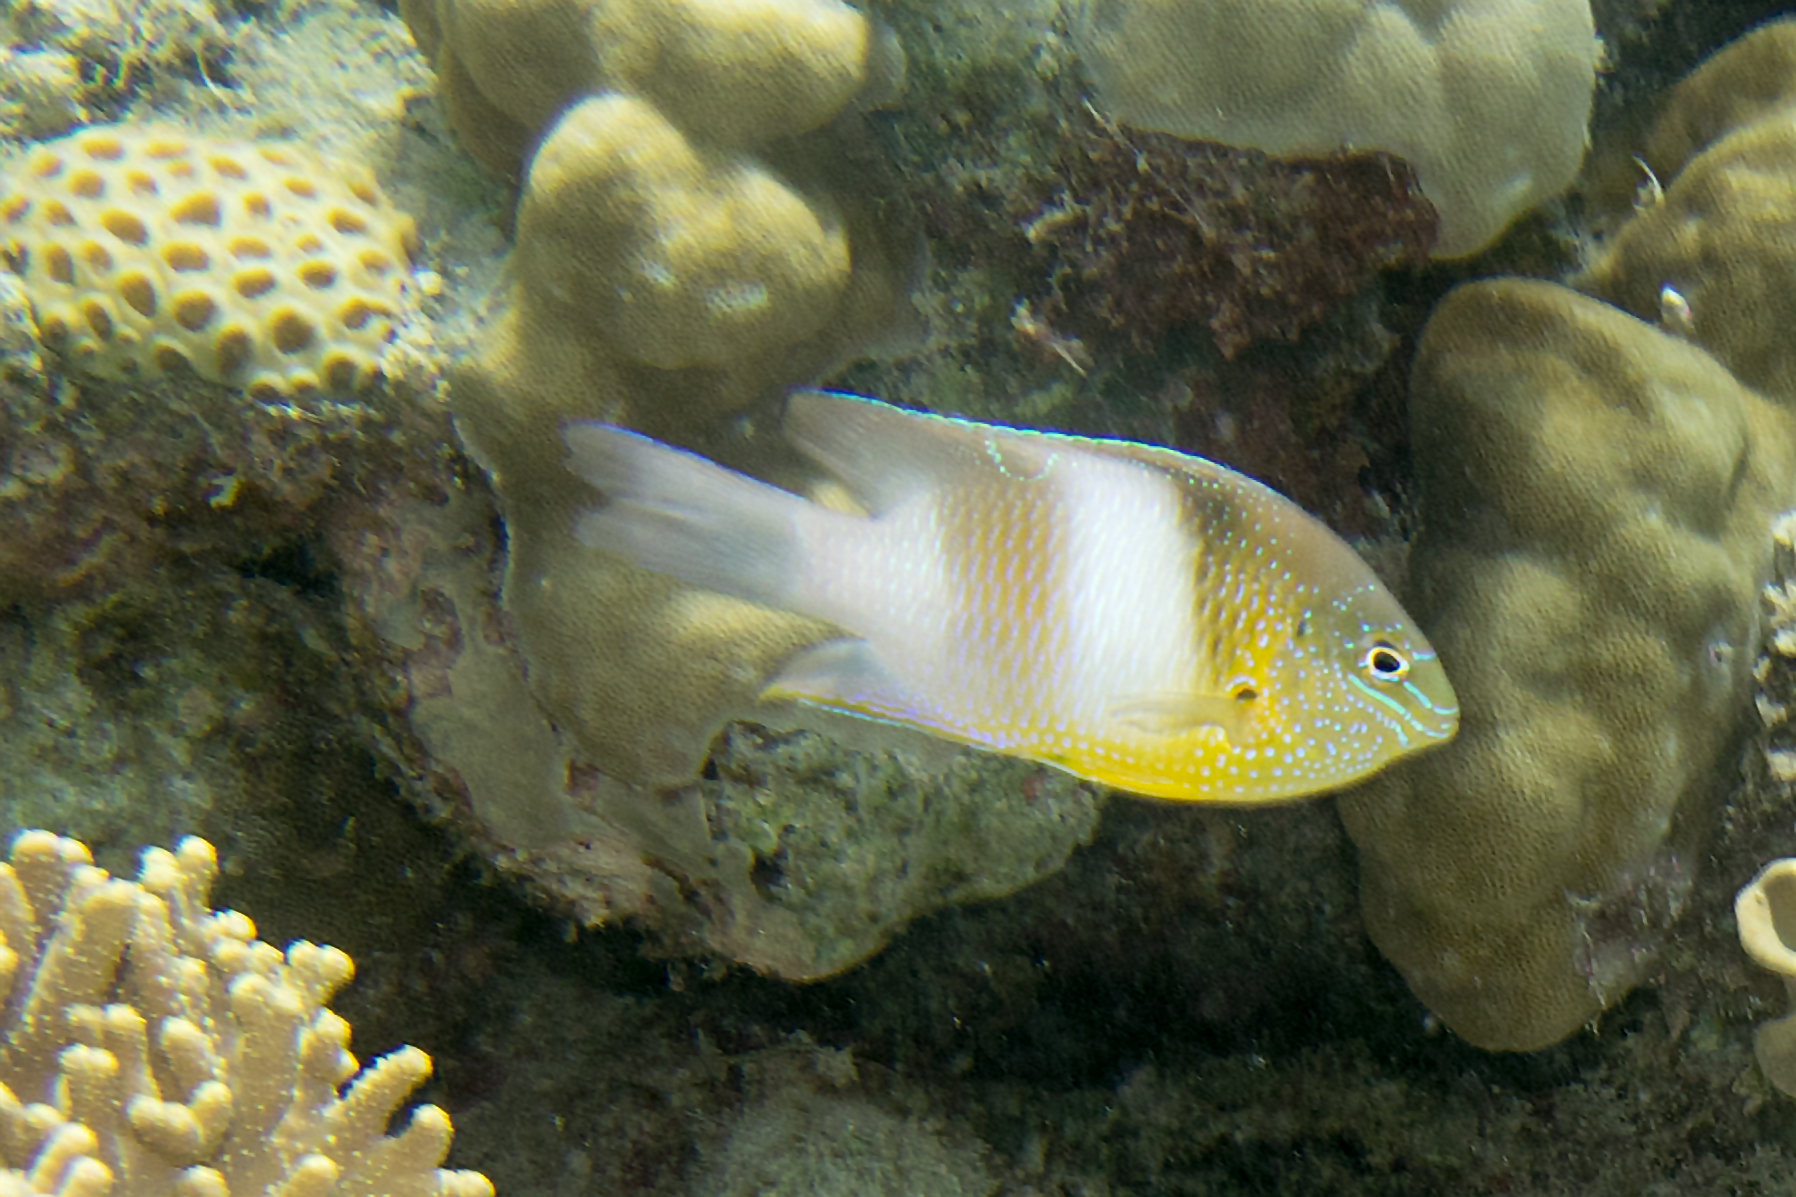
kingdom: Animalia
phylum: Chordata
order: Perciformes
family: Pomacentridae
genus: Dischistodus
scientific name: Dischistodus prosopotaenia
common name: Honey-head damsel
